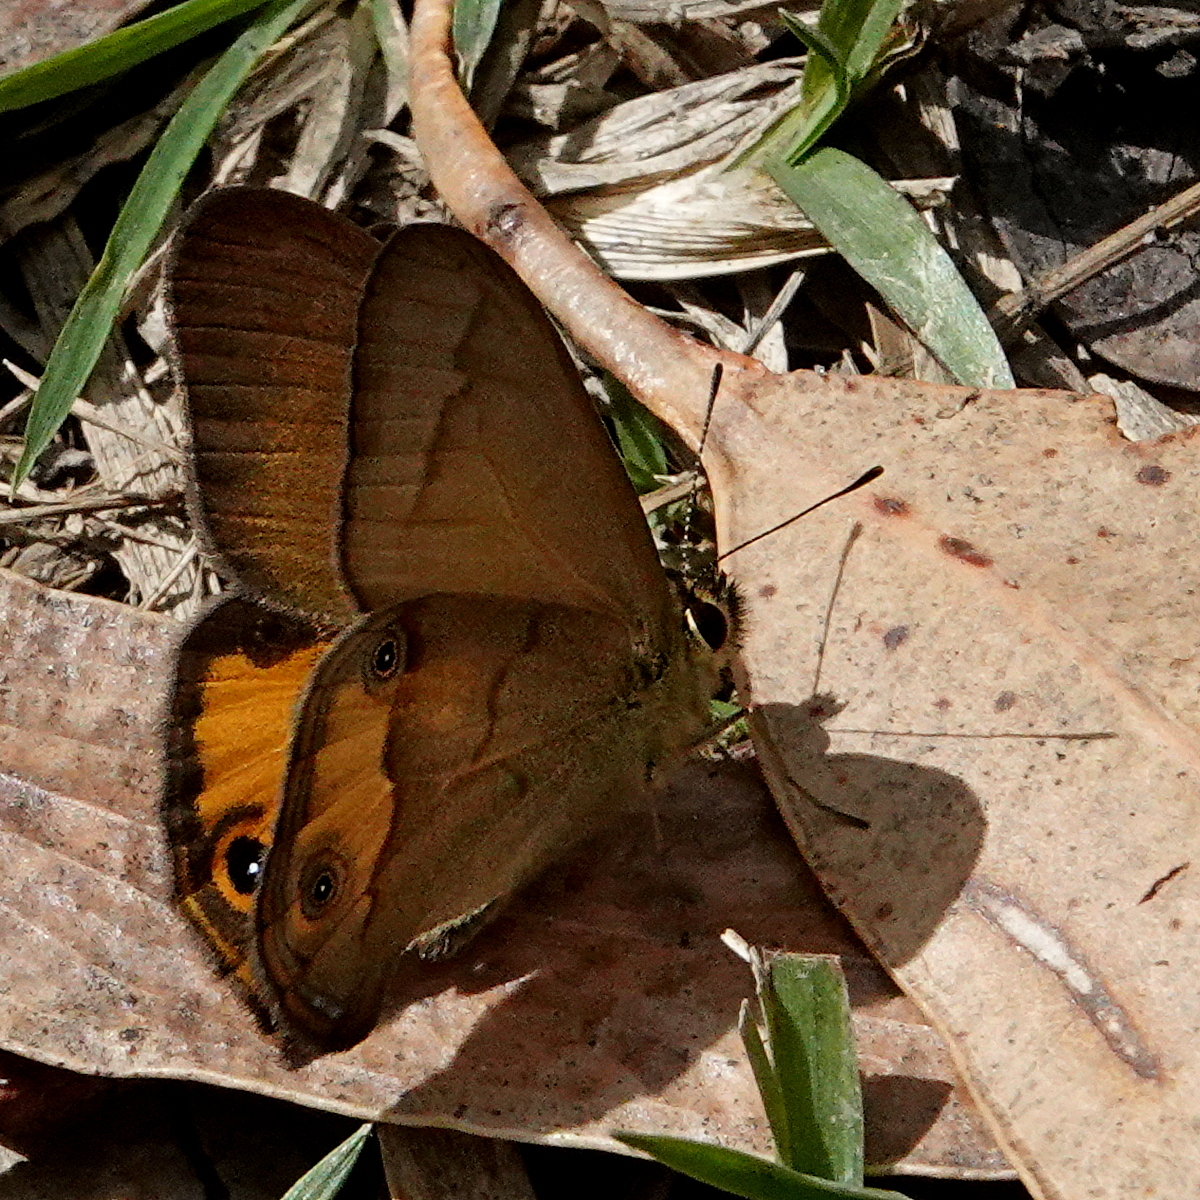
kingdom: Animalia
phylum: Arthropoda
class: Insecta
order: Lepidoptera
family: Nymphalidae
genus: Hypocysta
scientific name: Hypocysta metirius
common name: Brown ringlet
